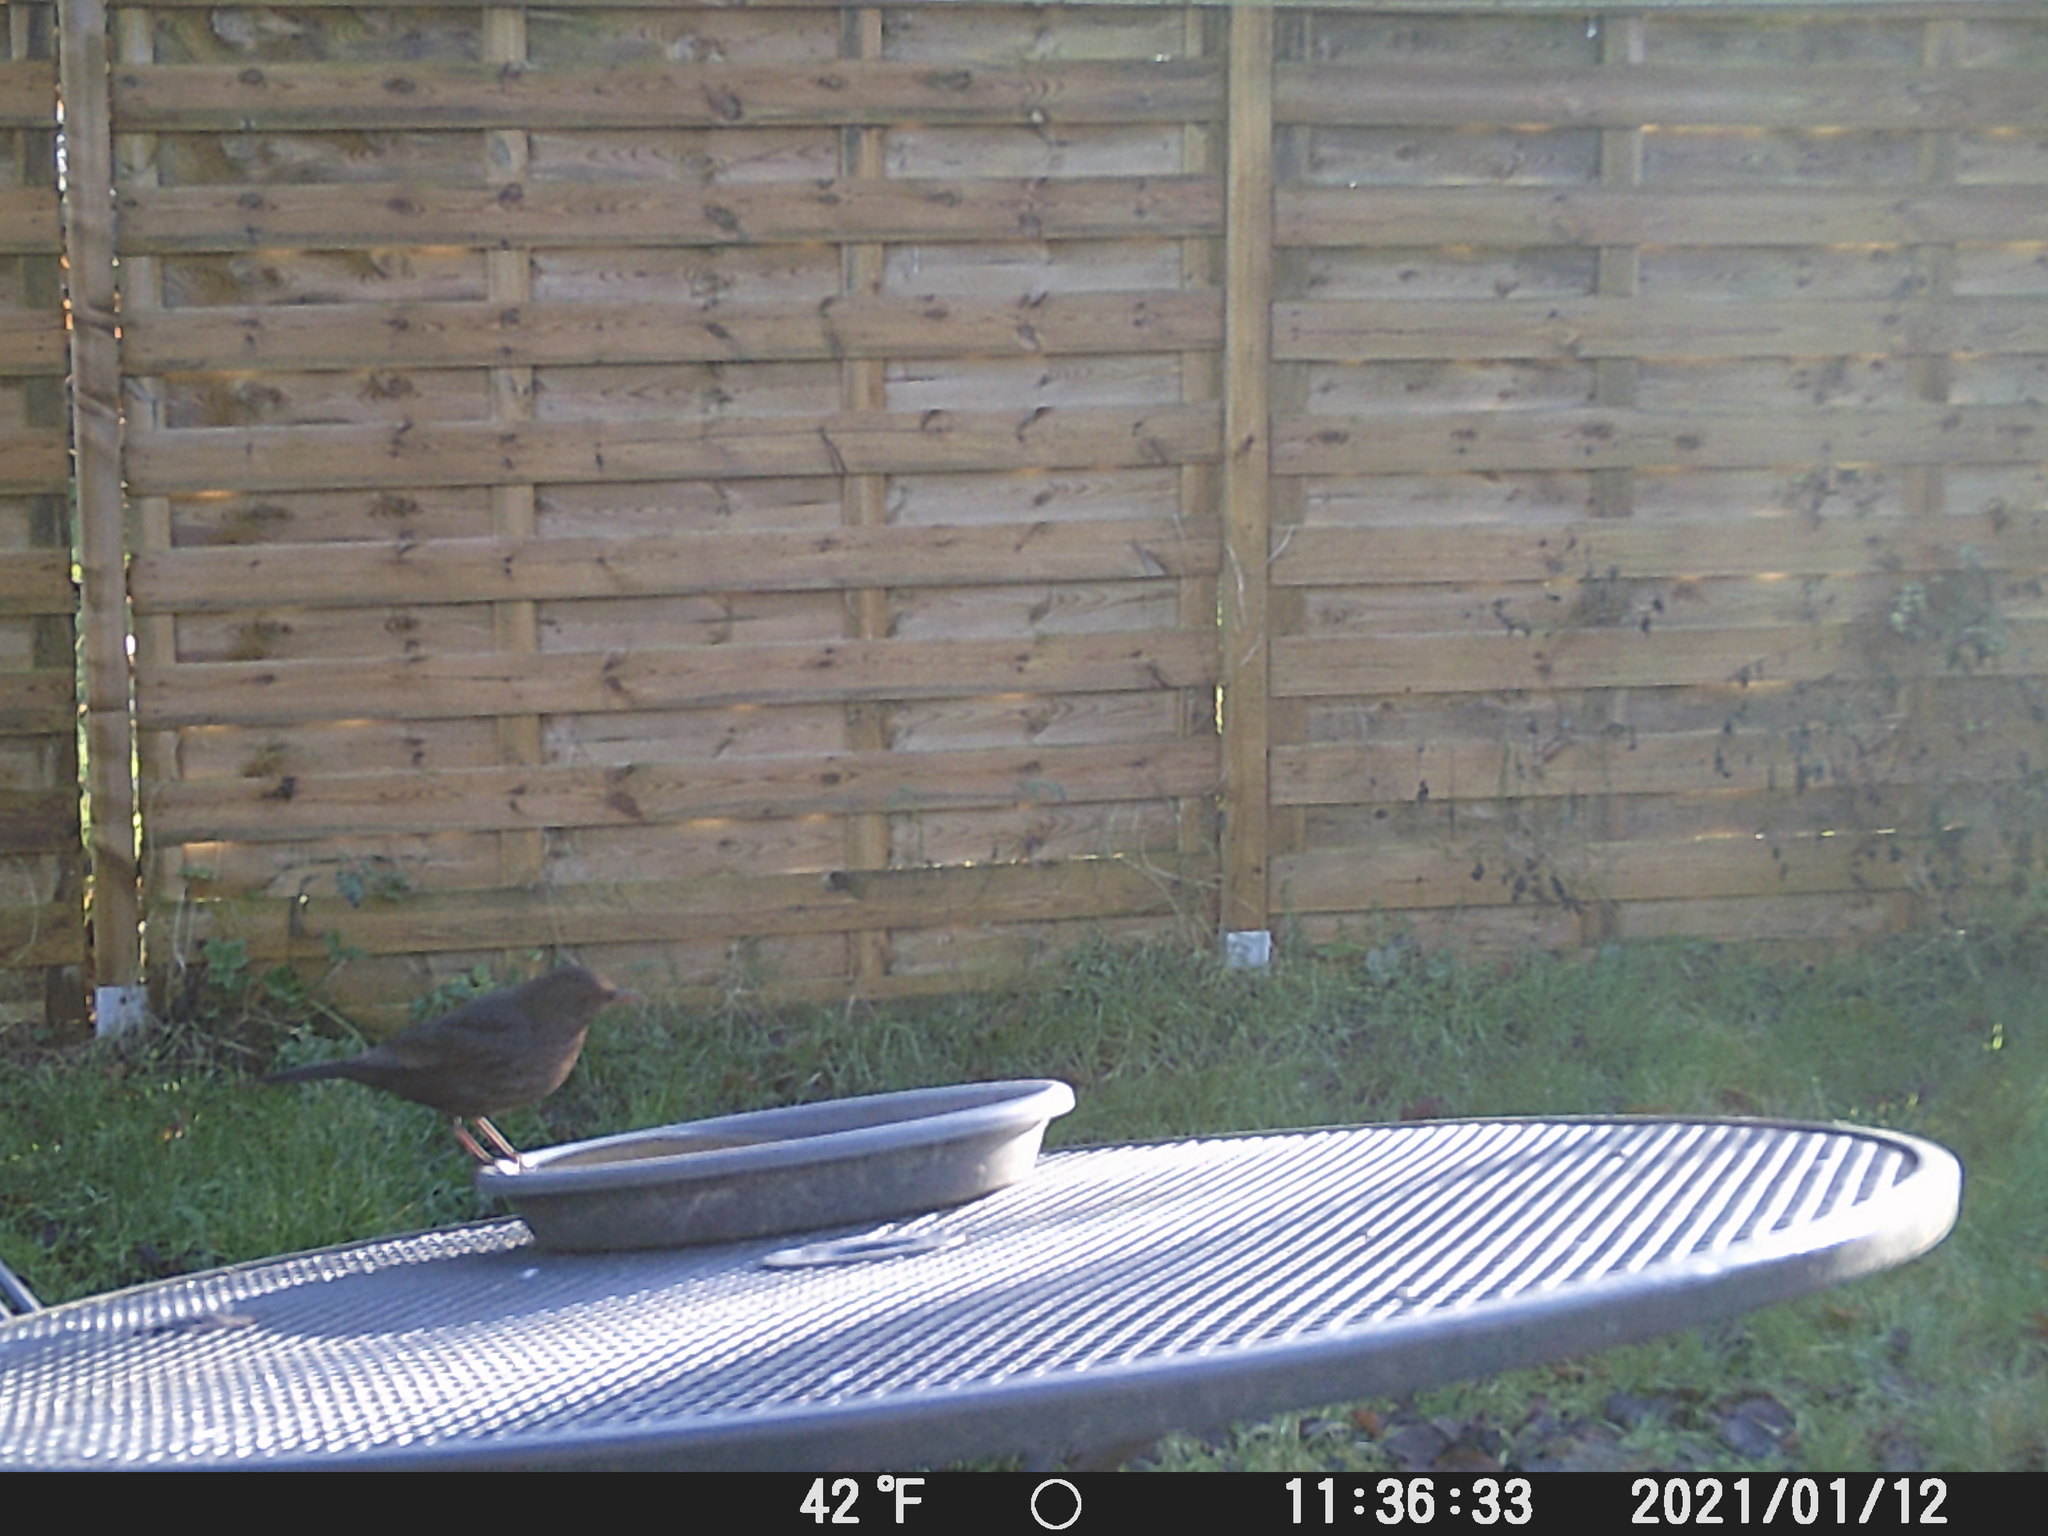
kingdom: Animalia
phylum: Chordata
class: Aves
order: Passeriformes
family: Turdidae
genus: Turdus
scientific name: Turdus merula
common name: Common blackbird
